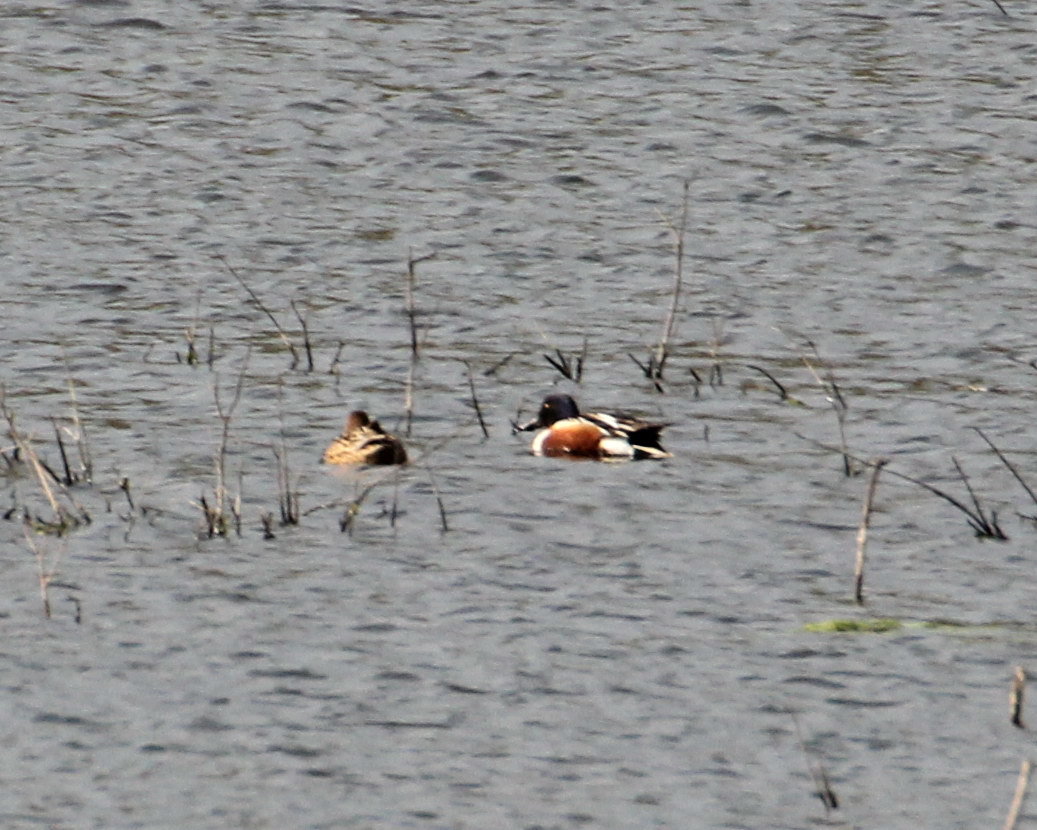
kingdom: Animalia
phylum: Chordata
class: Aves
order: Anseriformes
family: Anatidae
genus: Spatula
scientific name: Spatula clypeata
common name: Northern shoveler
